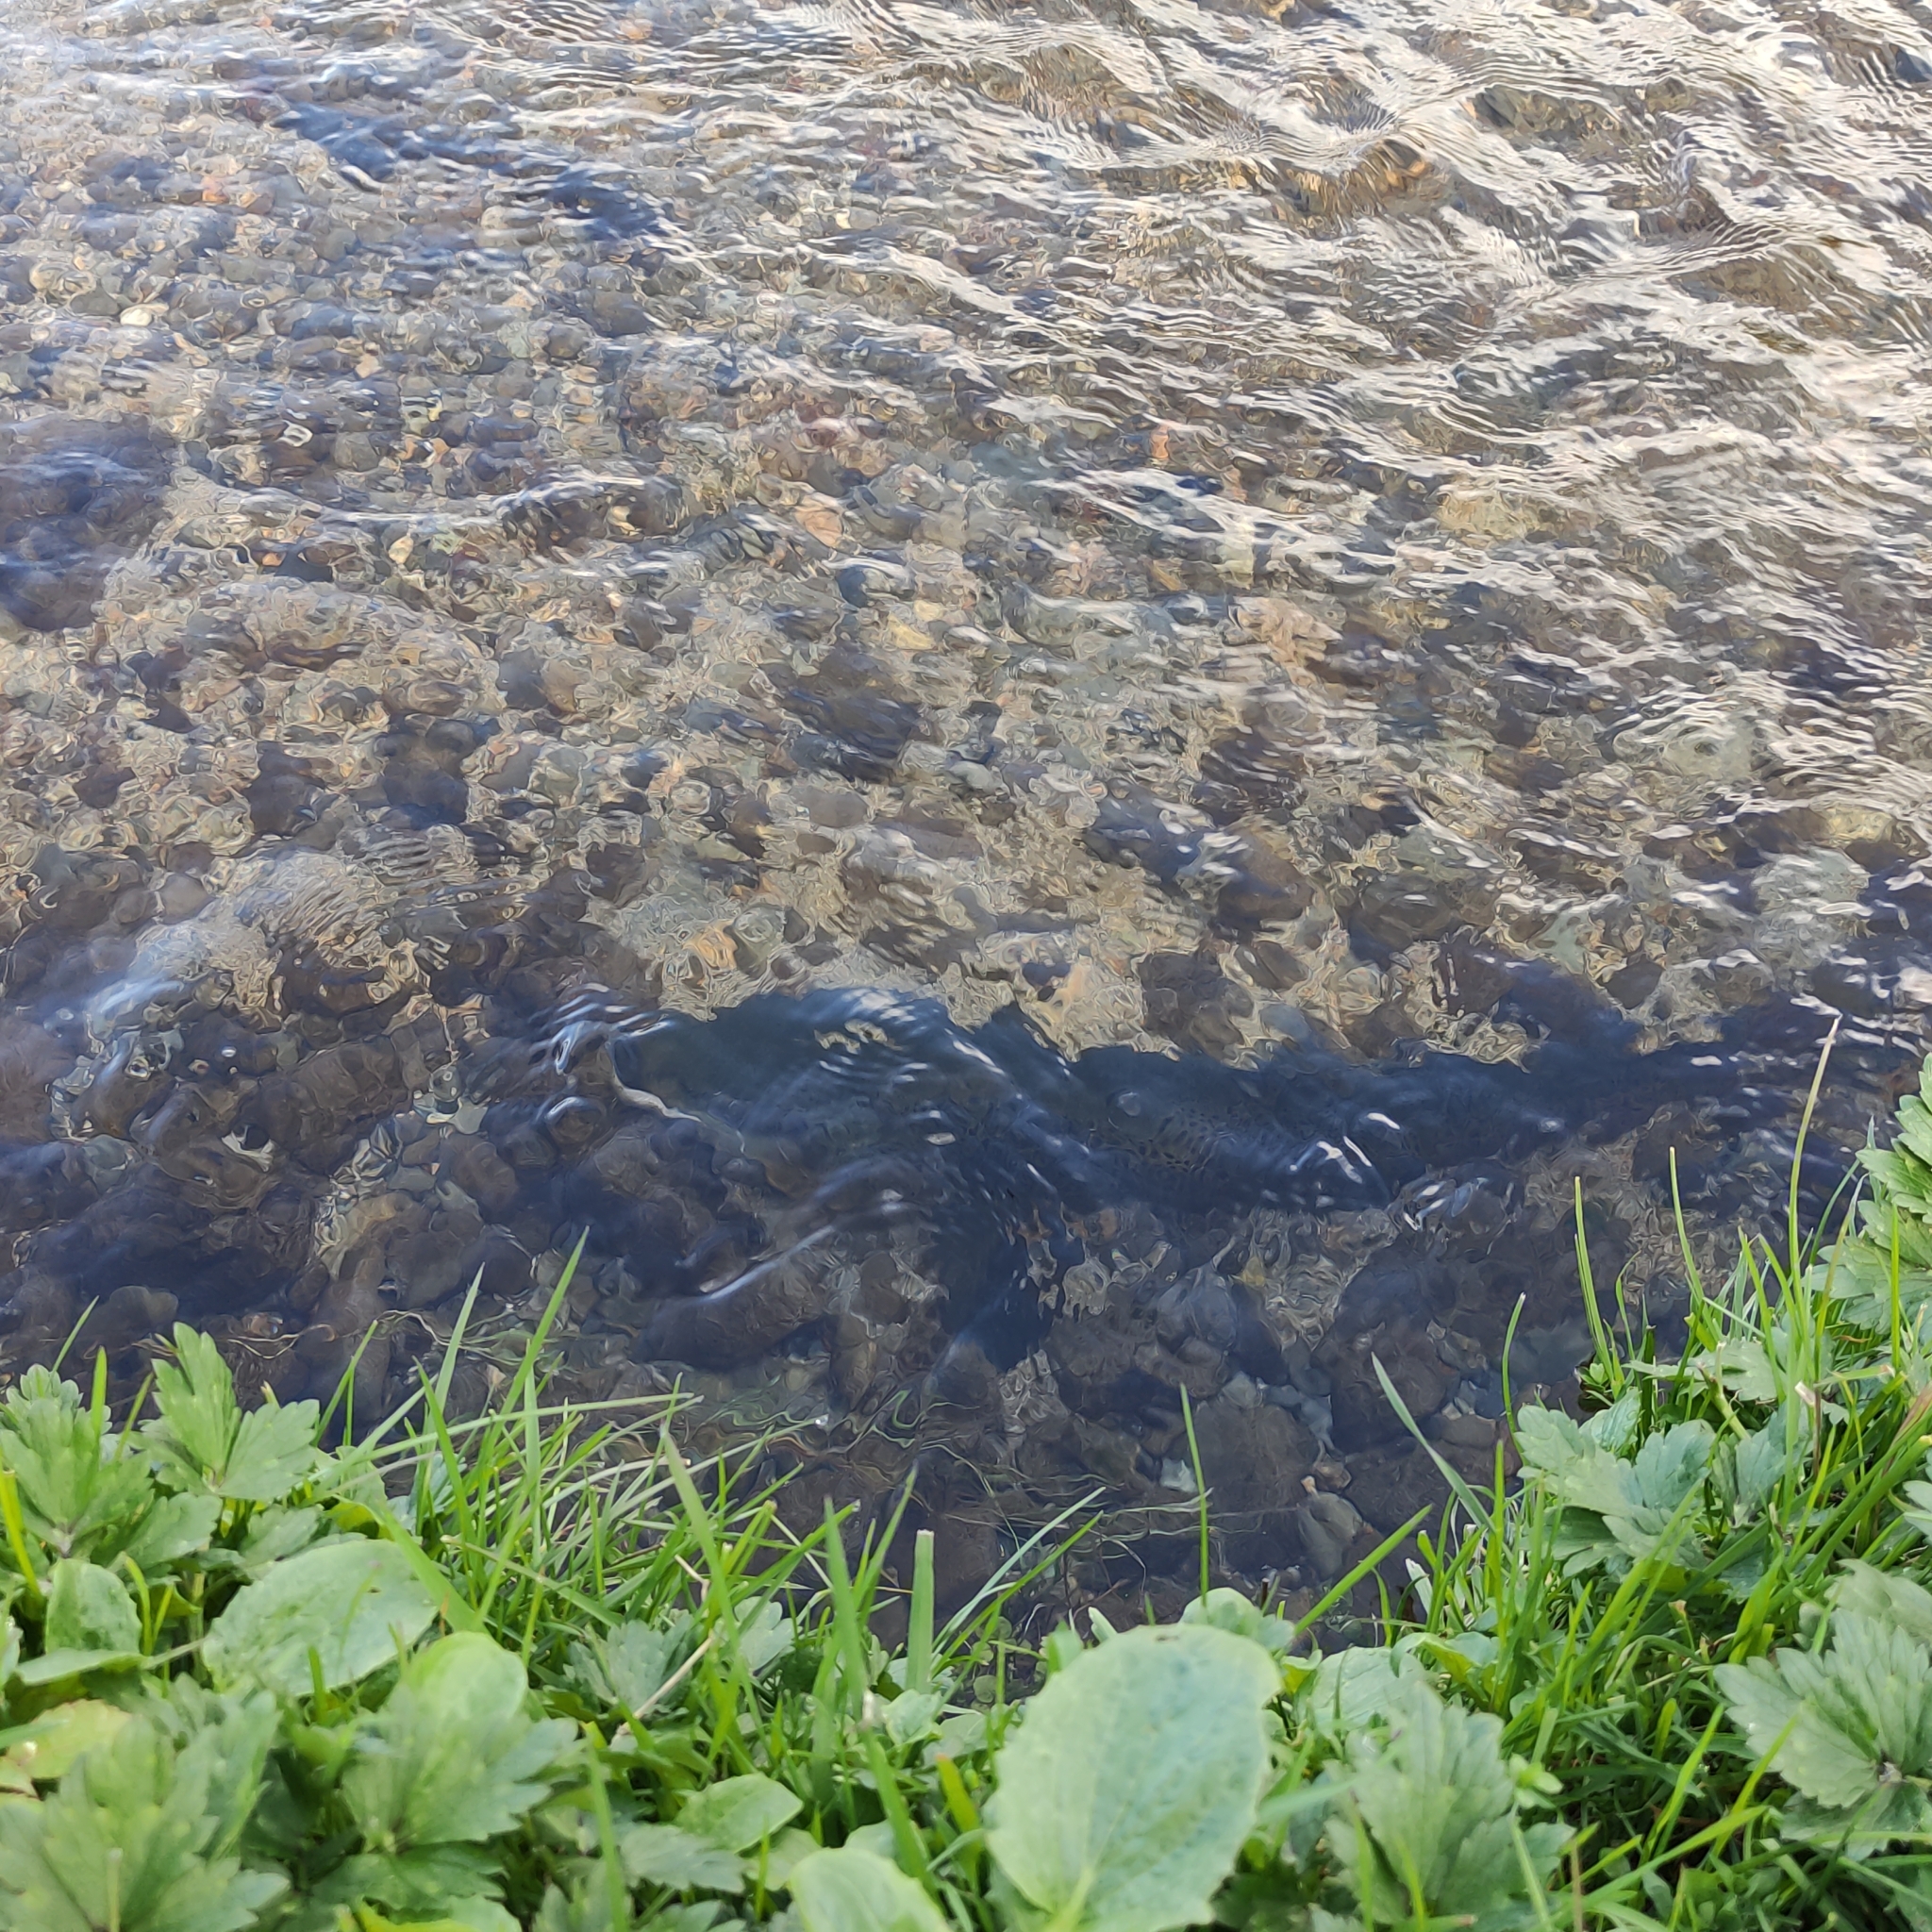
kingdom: Animalia
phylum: Chordata
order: Salmoniformes
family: Salmonidae
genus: Salmo
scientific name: Salmo trutta
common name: Brown trout
